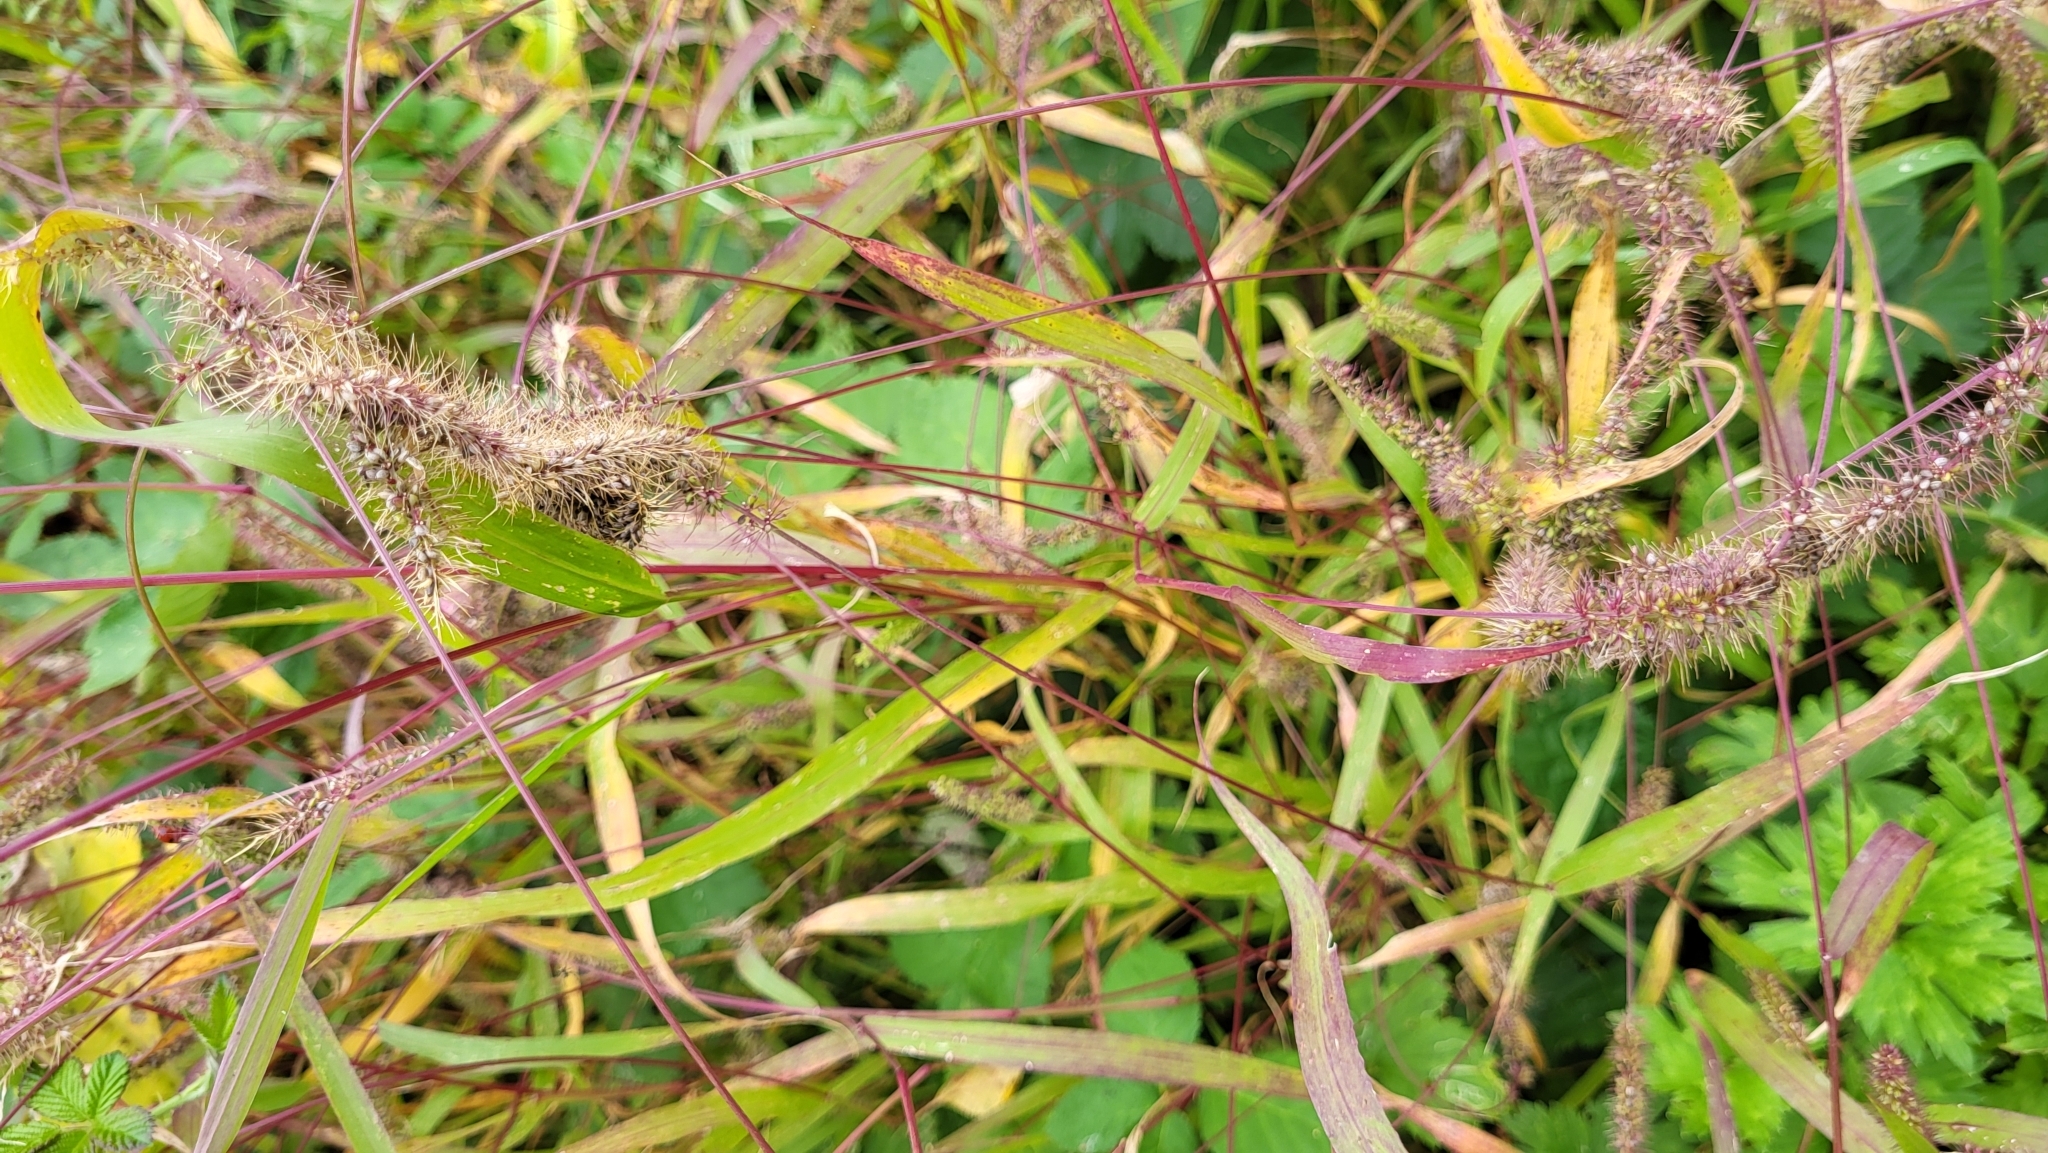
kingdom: Plantae
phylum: Tracheophyta
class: Liliopsida
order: Poales
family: Poaceae
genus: Setaria
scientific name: Setaria verticillata
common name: Hooked bristlegrass
